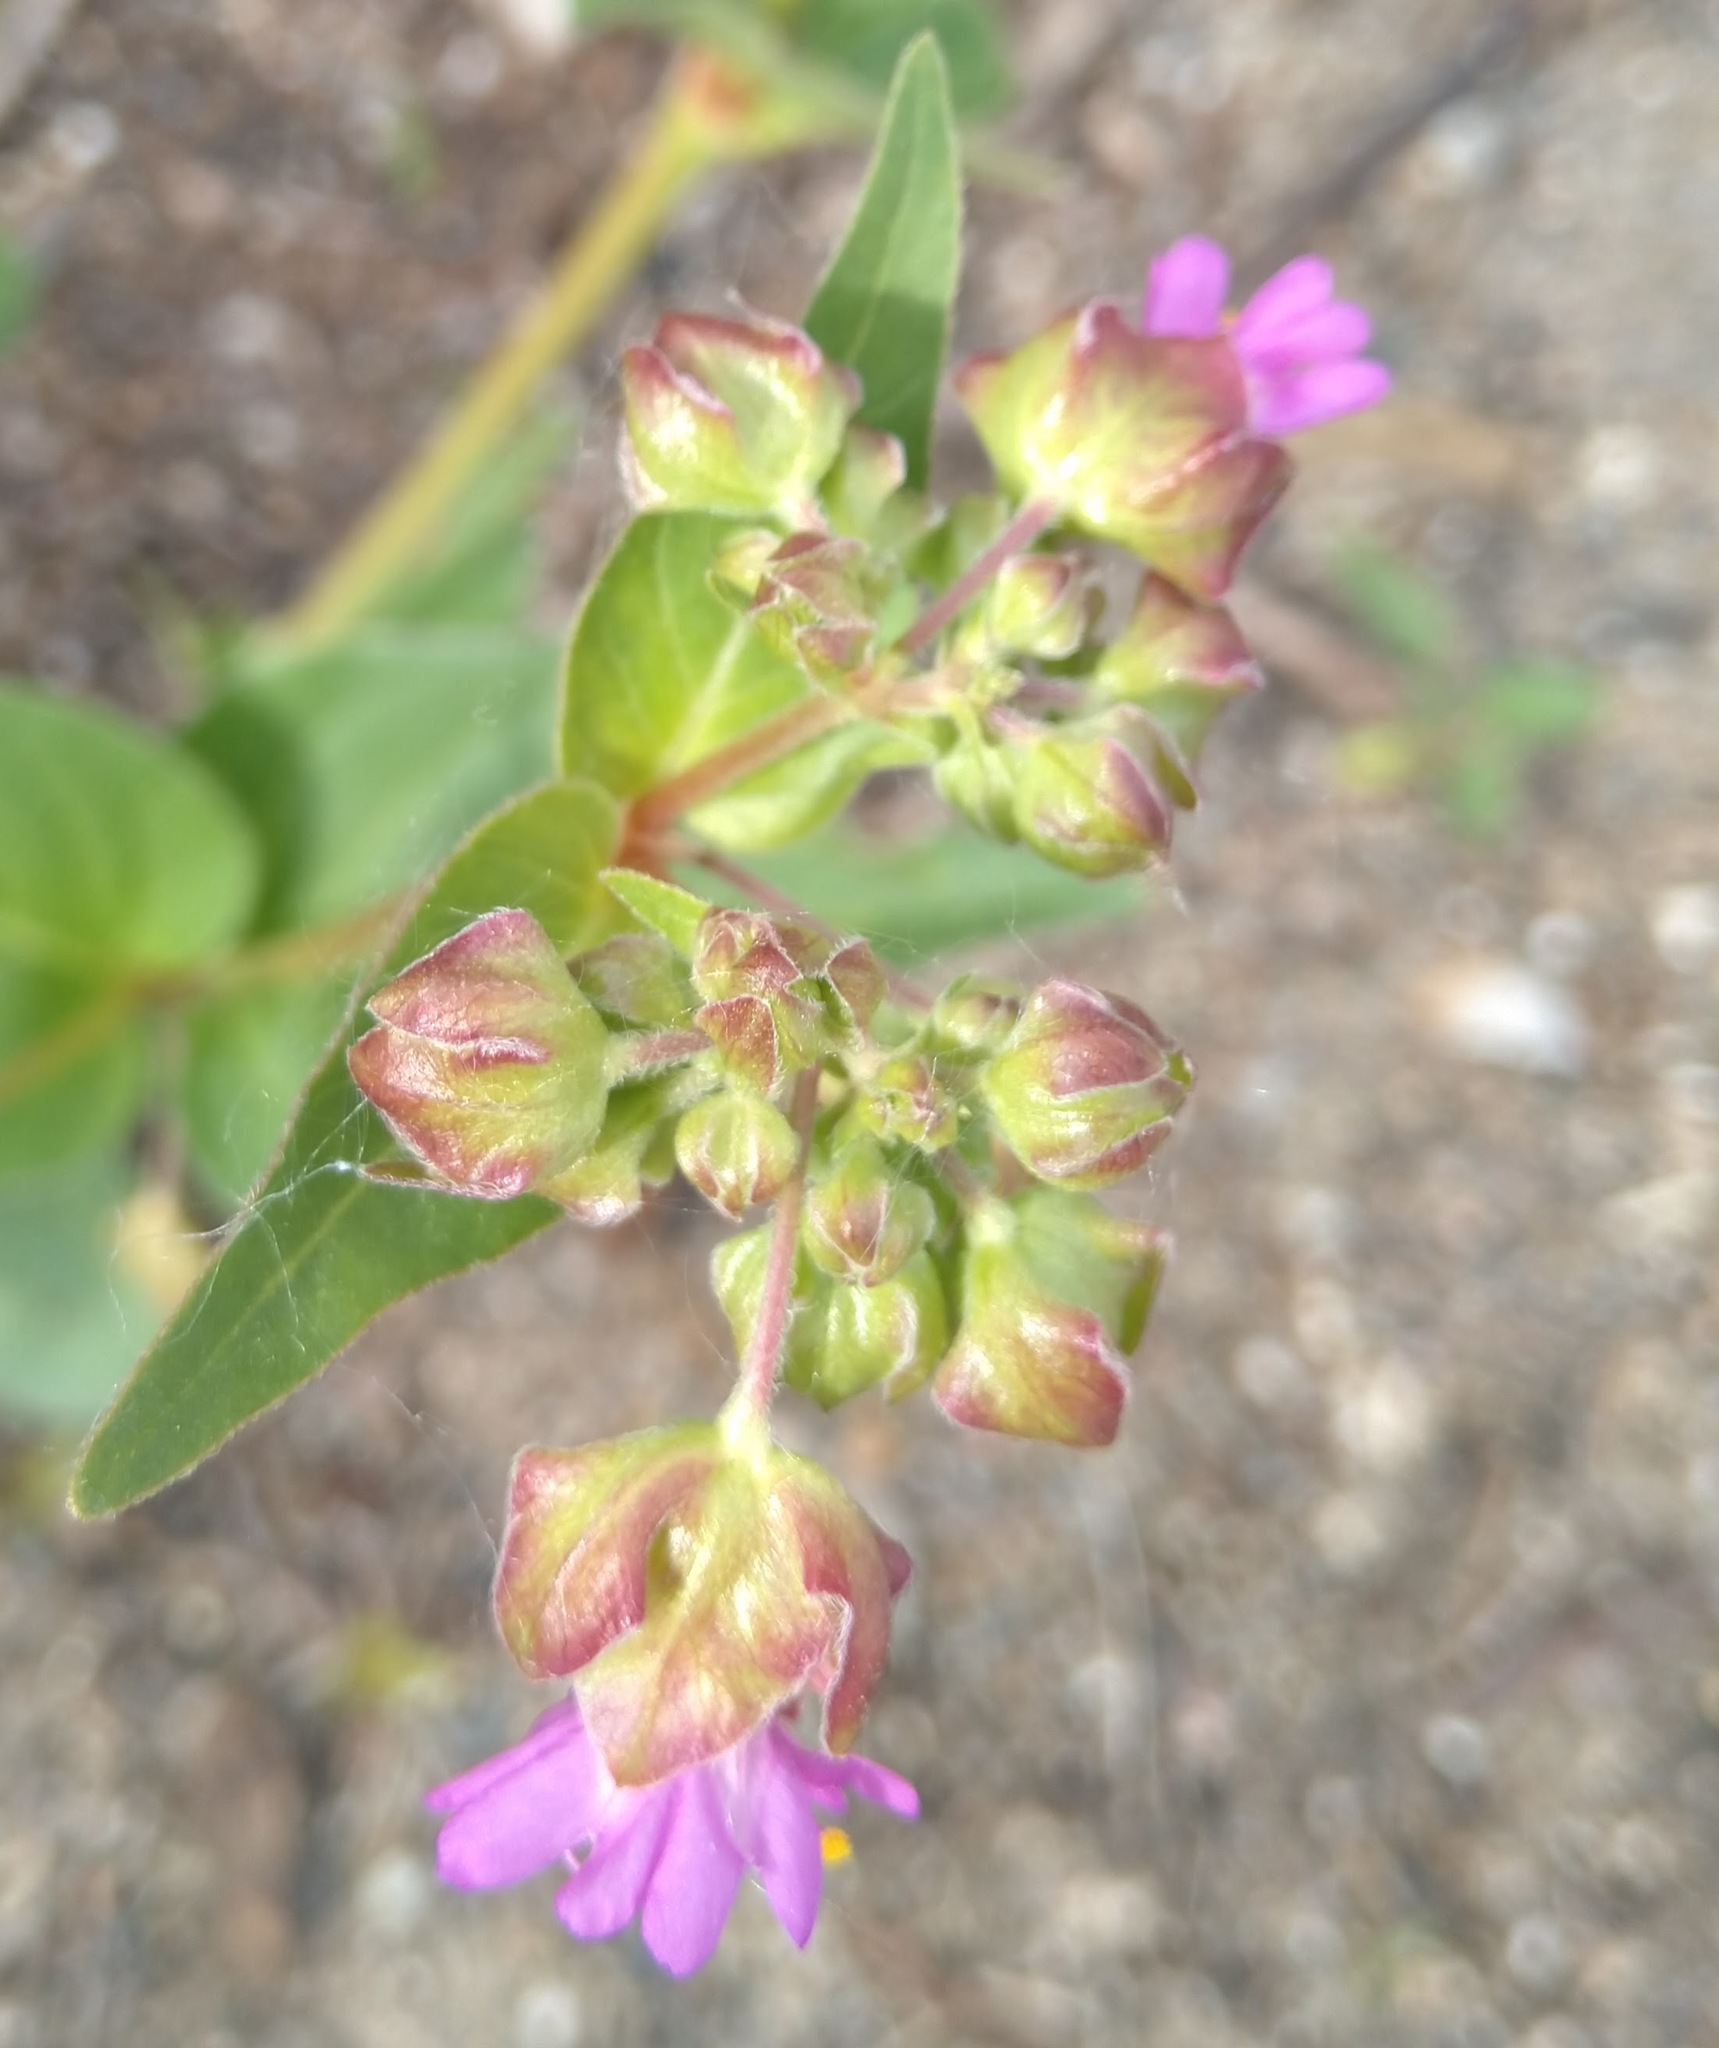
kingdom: Plantae
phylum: Tracheophyta
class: Magnoliopsida
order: Caryophyllales
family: Nyctaginaceae
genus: Mirabilis
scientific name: Mirabilis nyctaginea
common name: Umbrella wort
